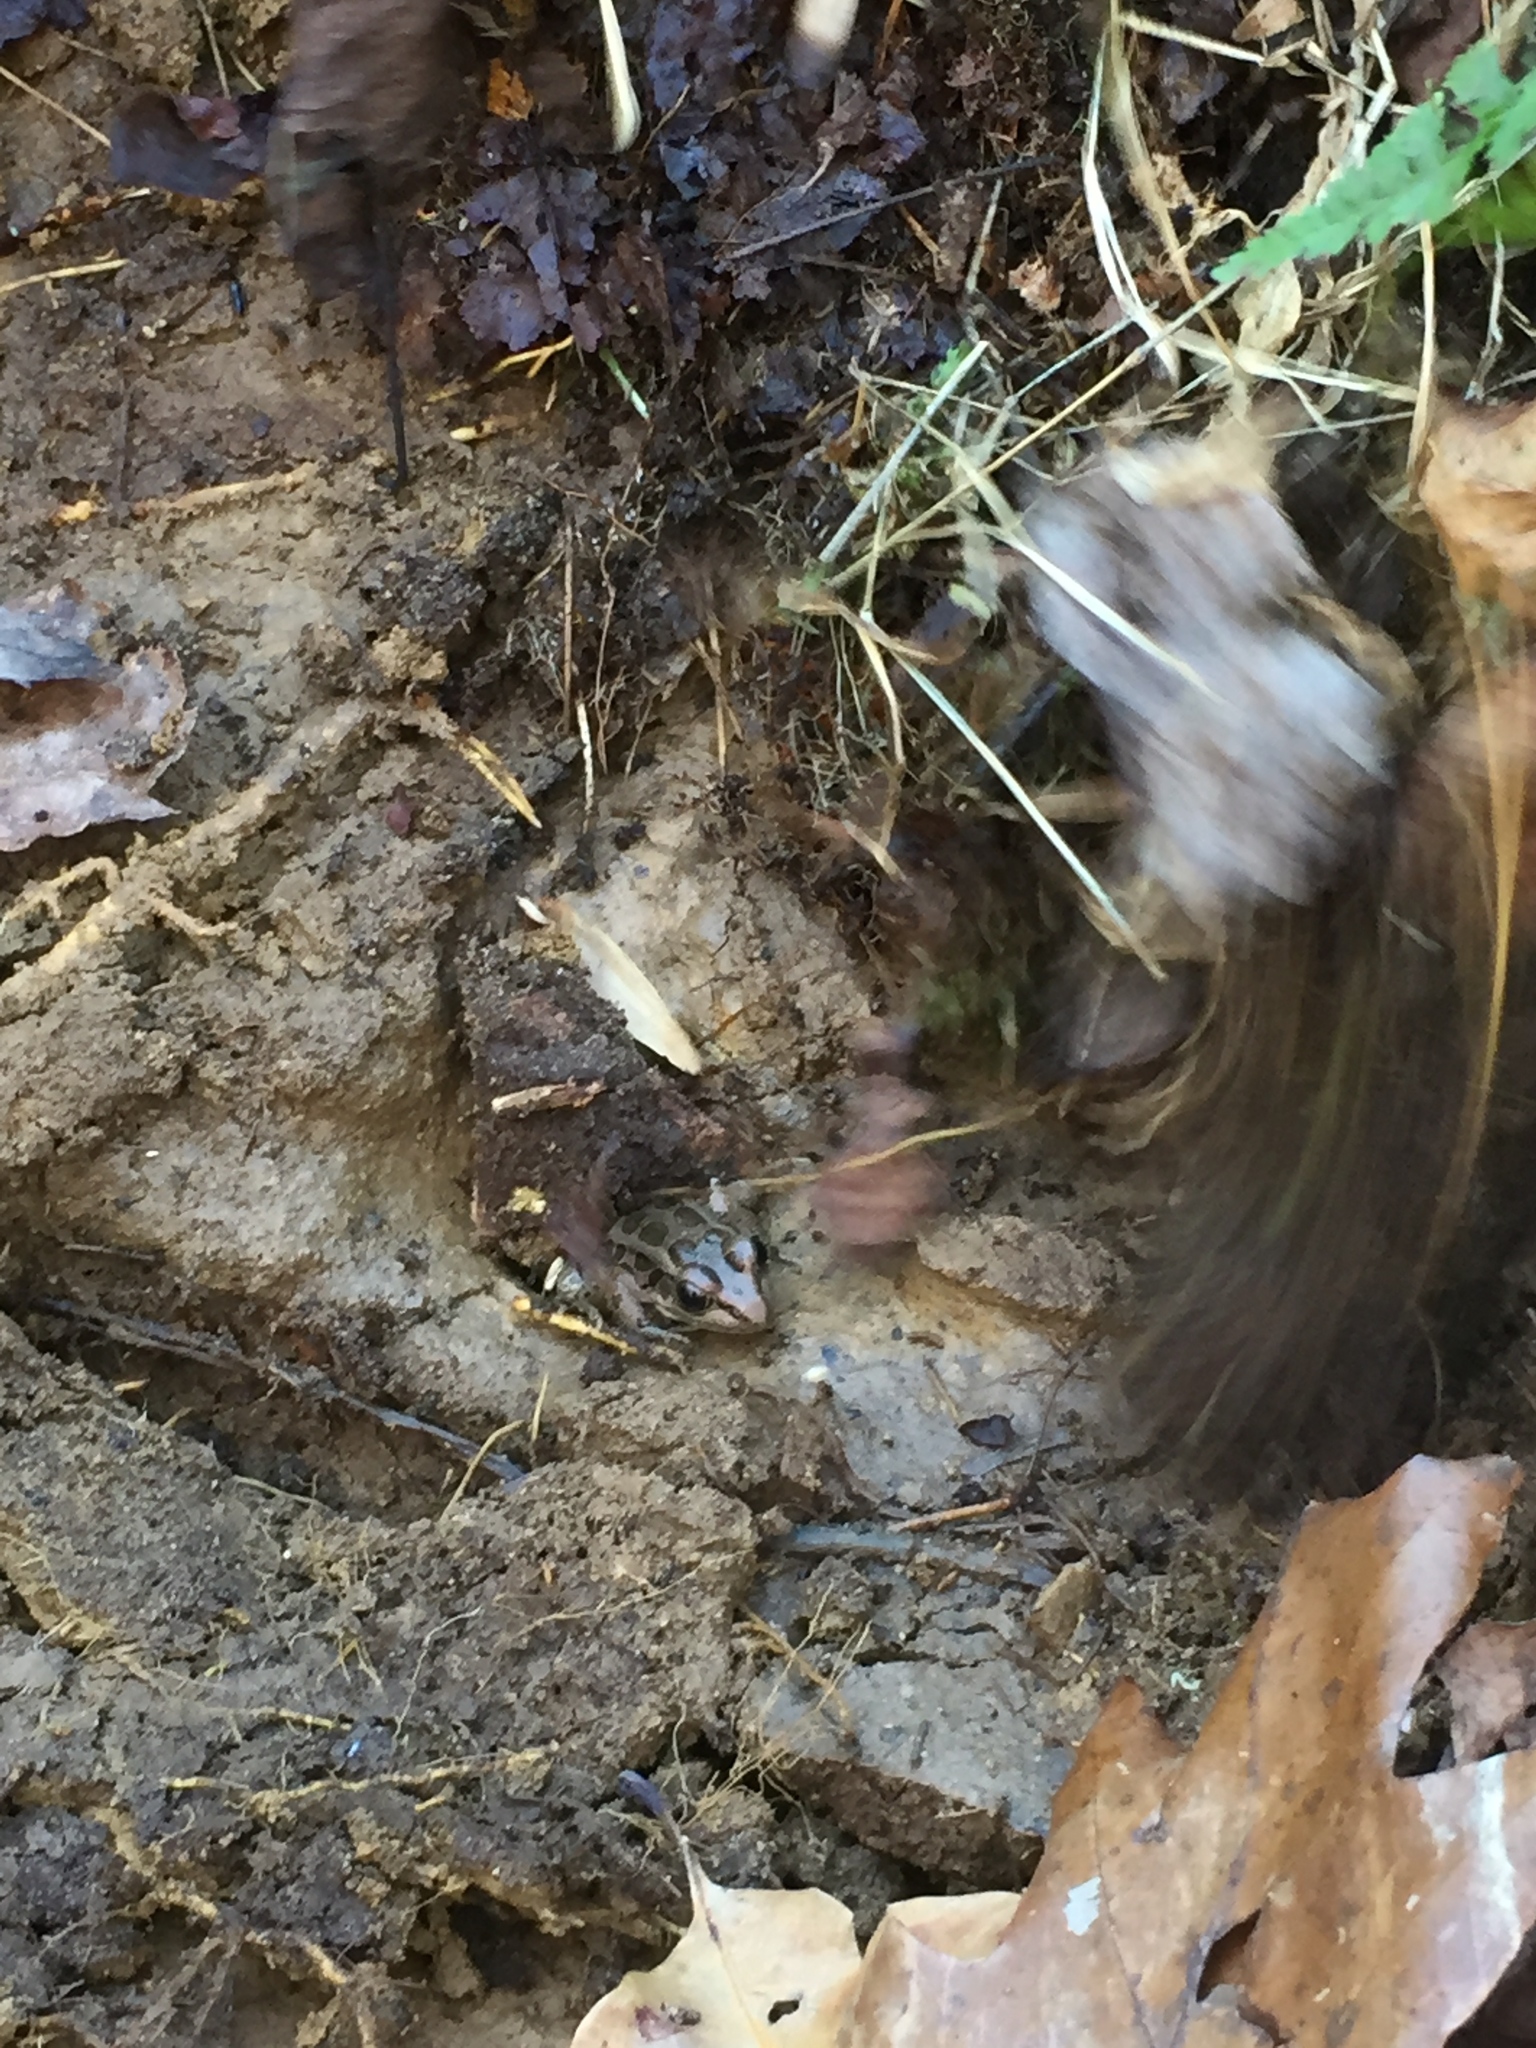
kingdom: Animalia
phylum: Chordata
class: Amphibia
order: Anura
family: Ranidae
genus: Lithobates
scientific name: Lithobates palustris
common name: Pickerel frog
